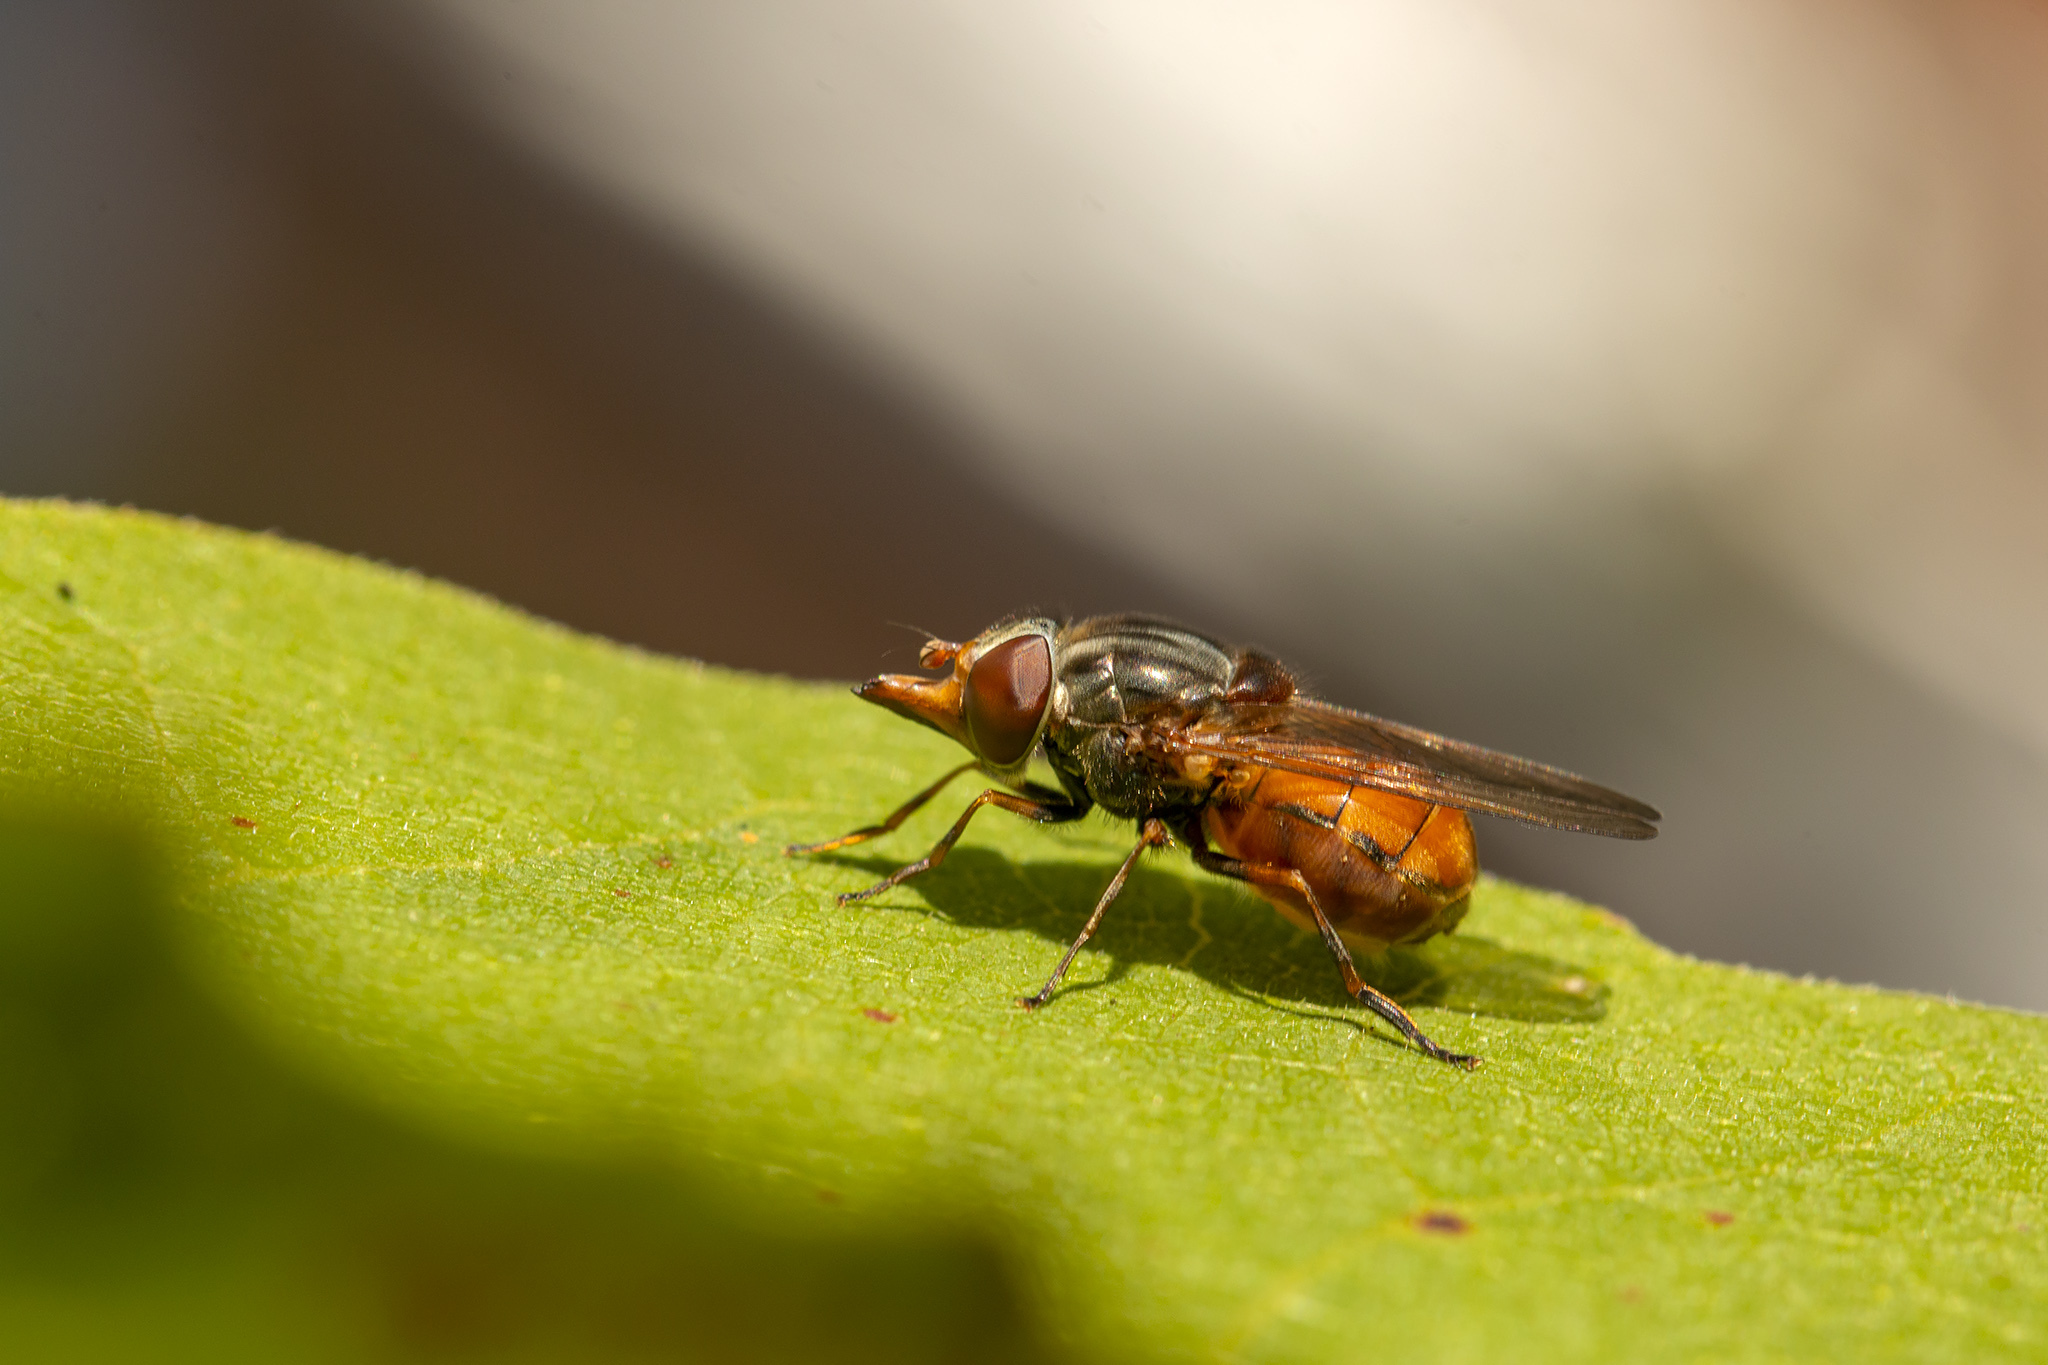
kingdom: Animalia
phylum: Arthropoda
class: Insecta
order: Diptera
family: Syrphidae
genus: Rhingia
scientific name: Rhingia campestris
